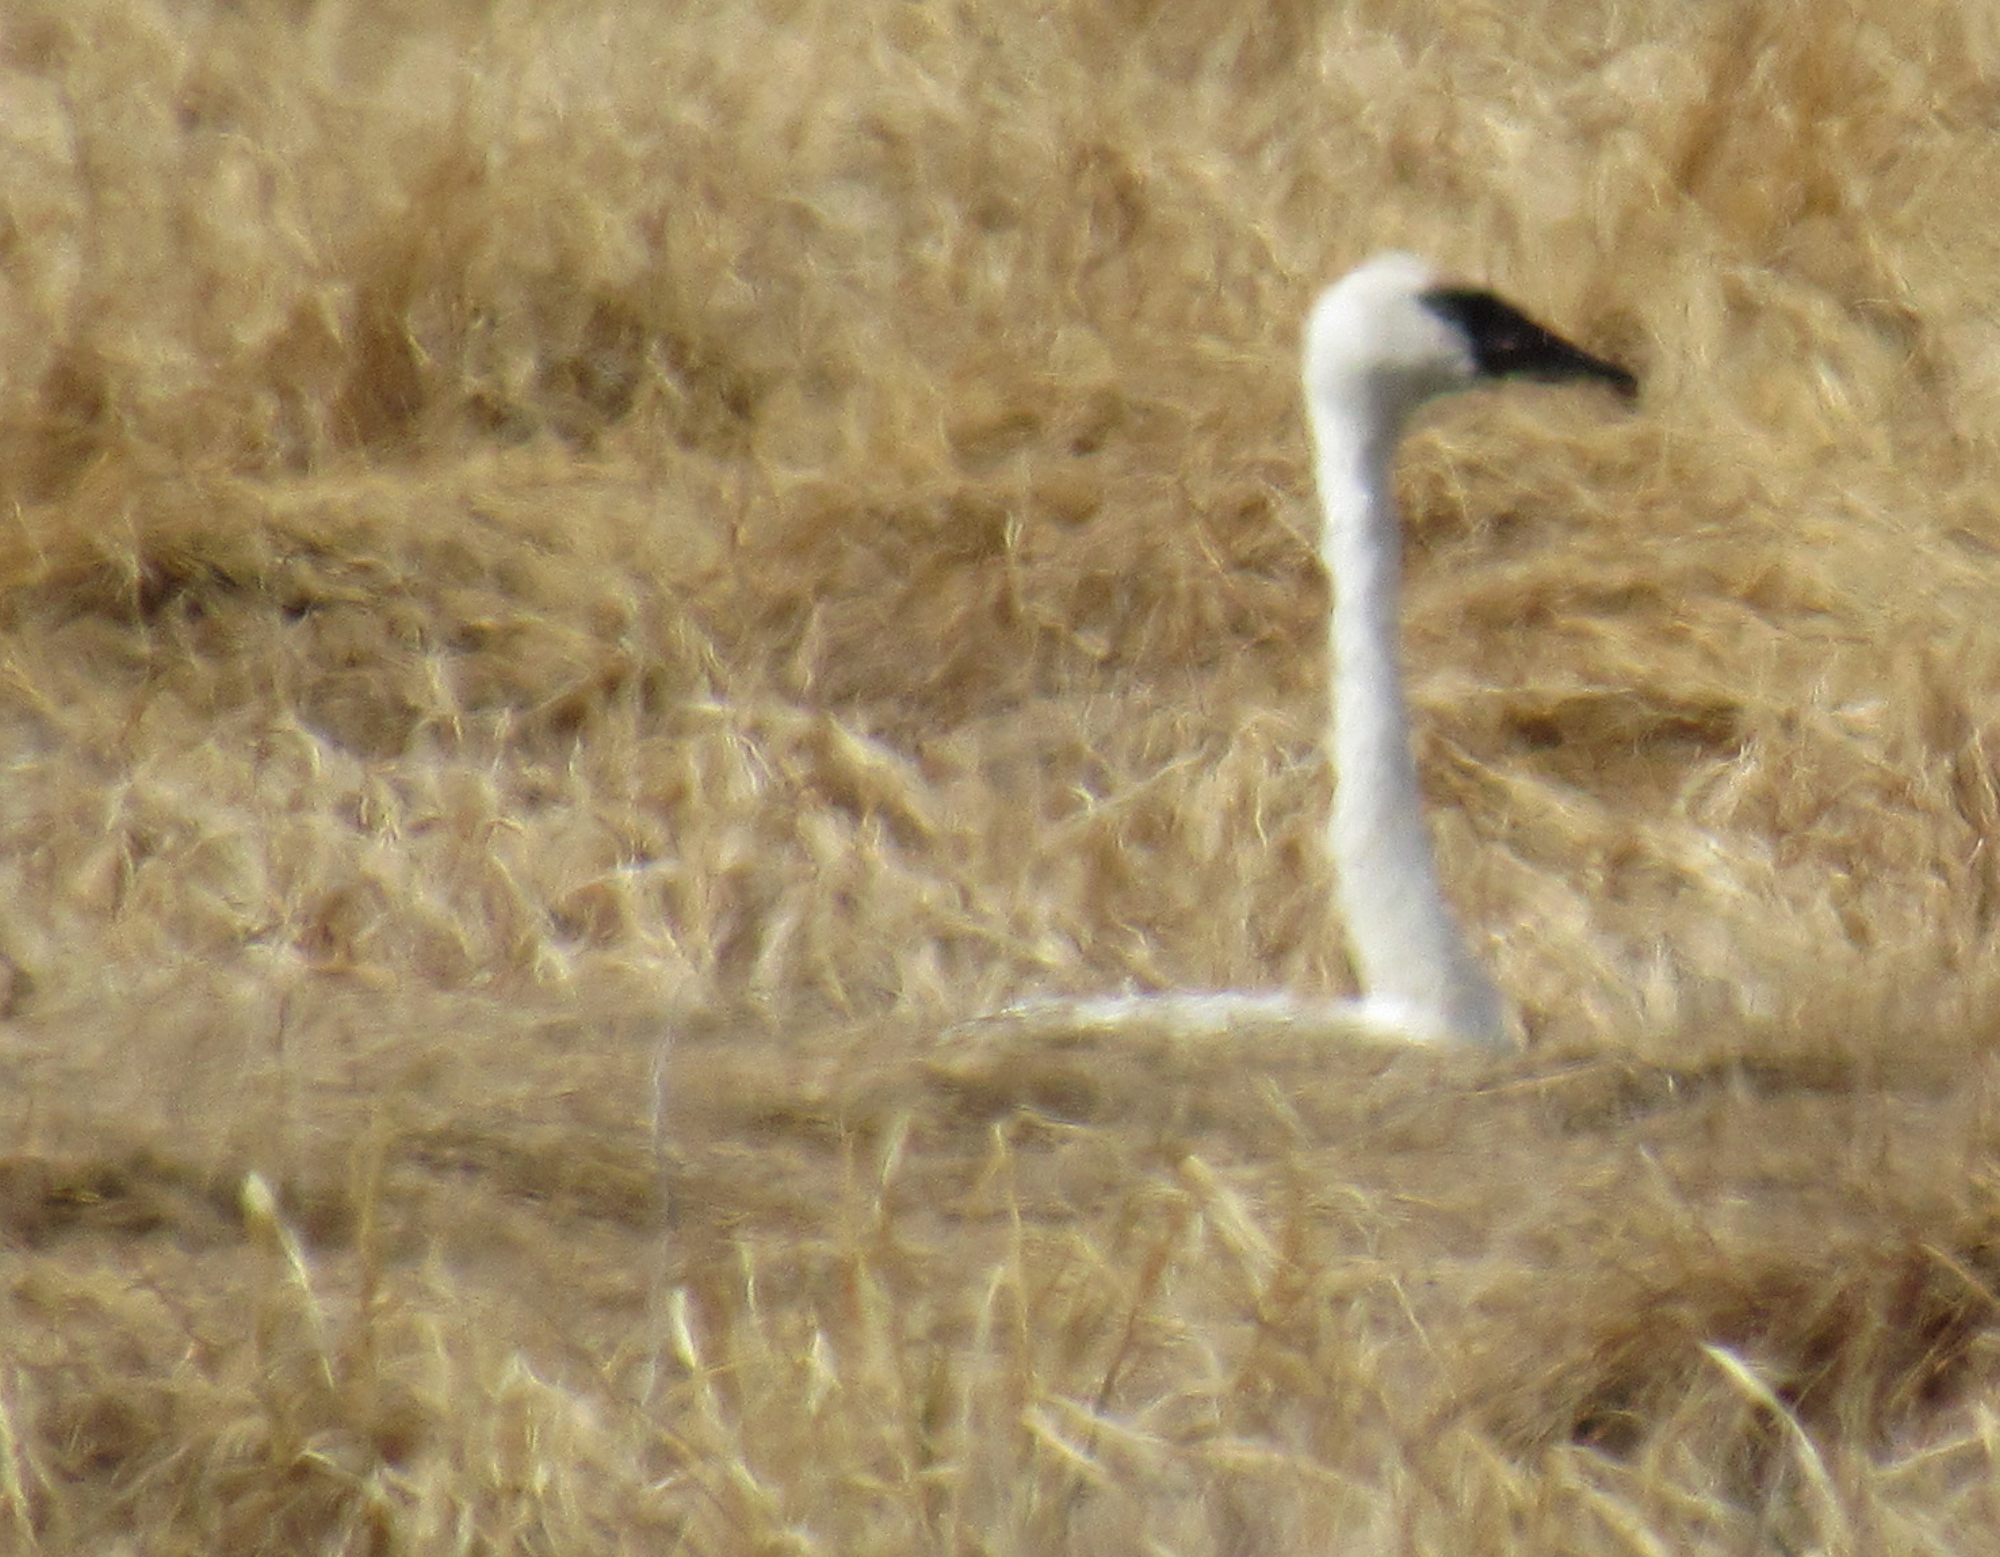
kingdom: Animalia
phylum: Chordata
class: Aves
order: Anseriformes
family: Anatidae
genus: Cygnus
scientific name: Cygnus buccinator
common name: Trumpeter swan
